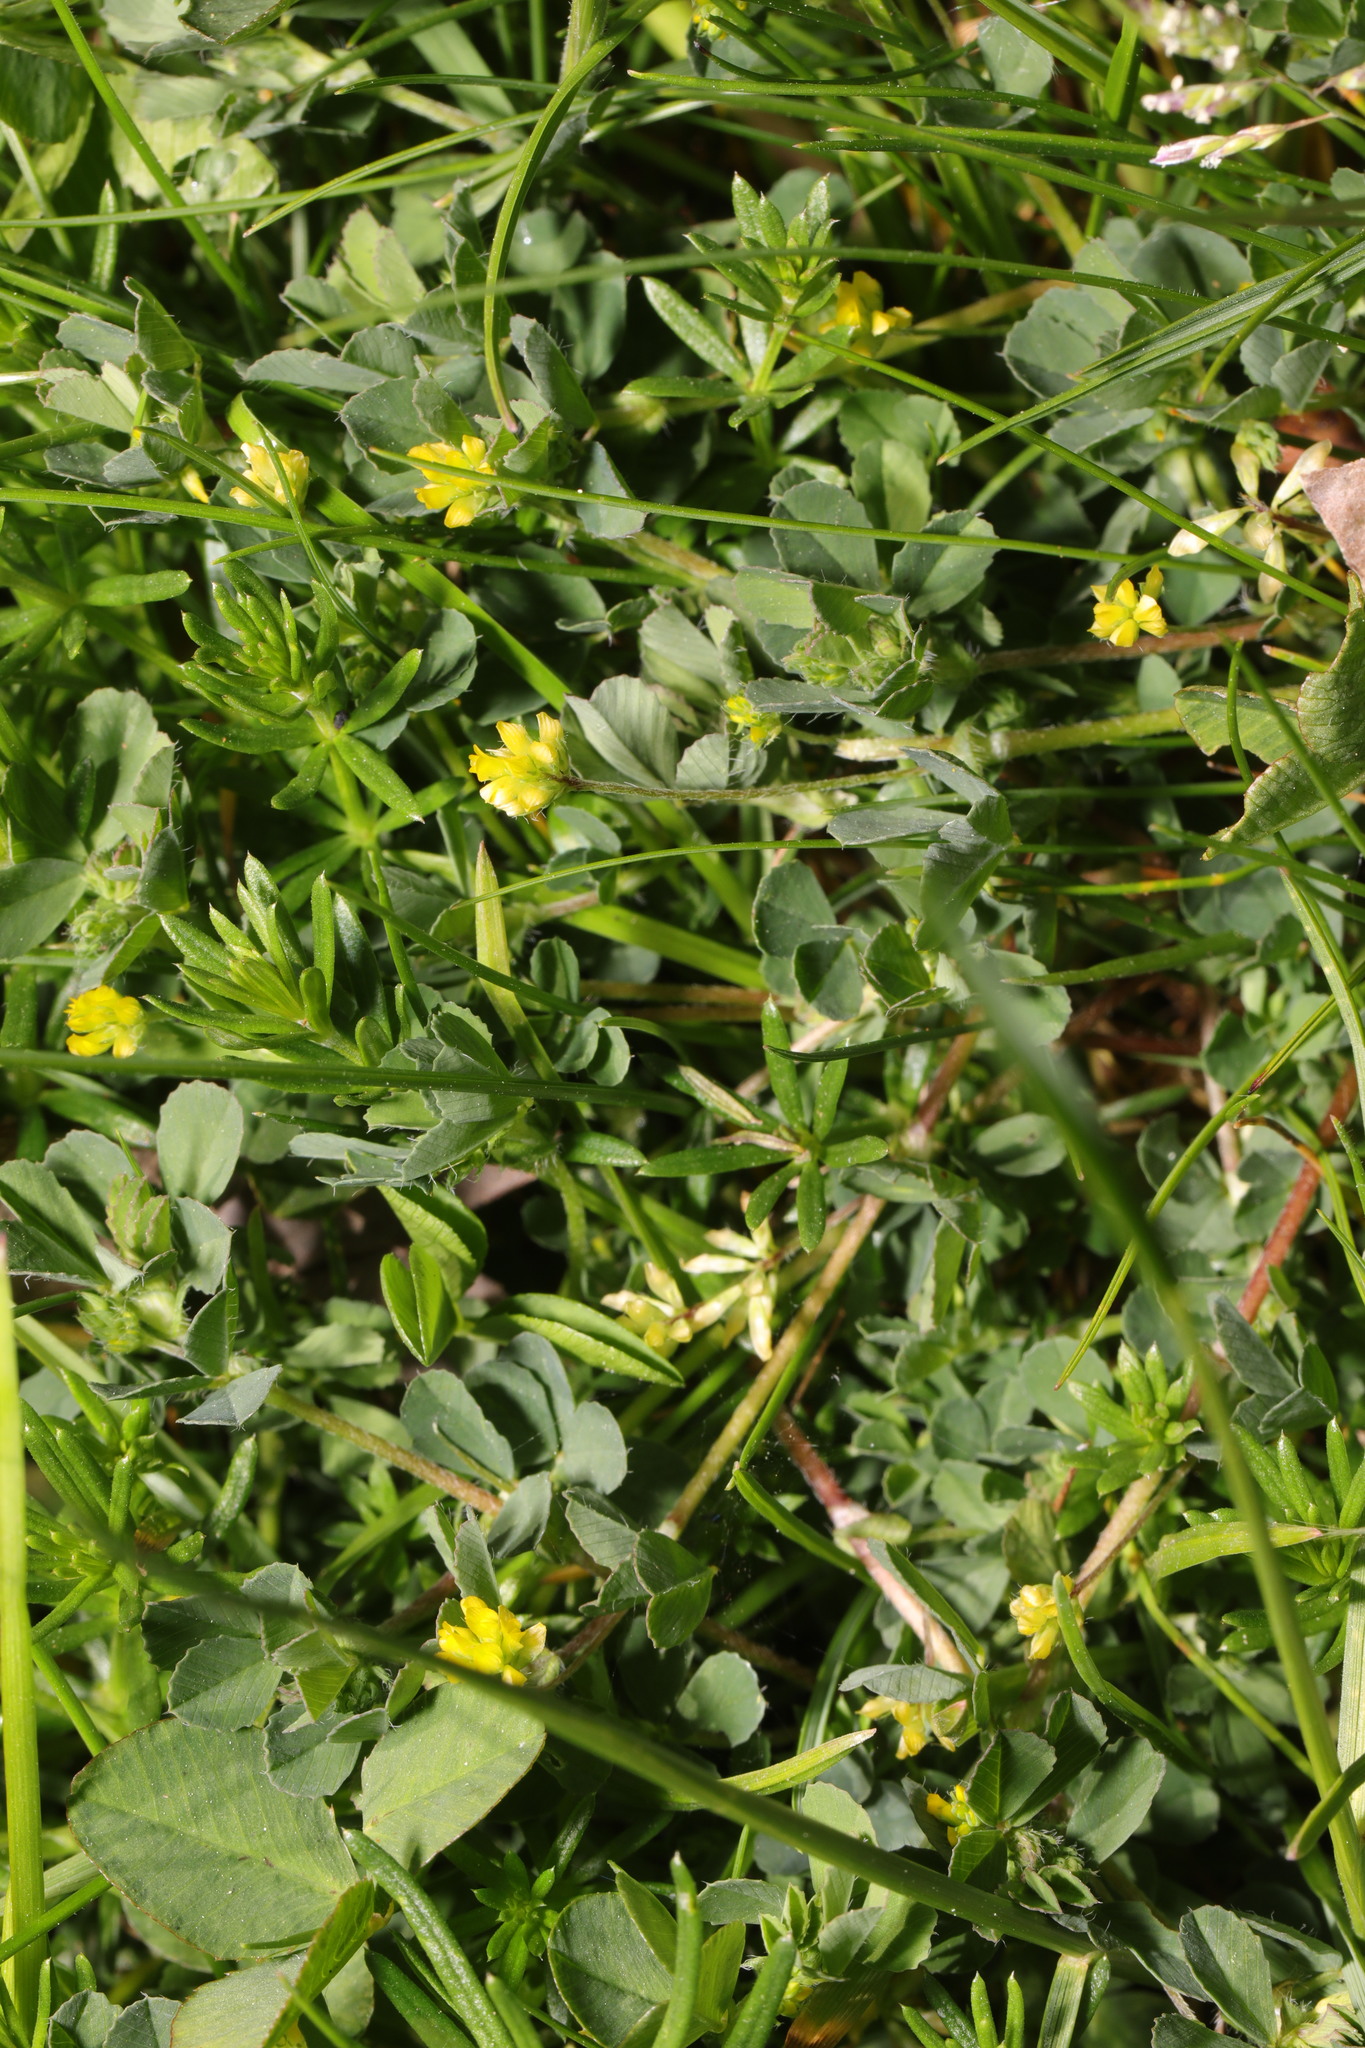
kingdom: Plantae
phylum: Tracheophyta
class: Magnoliopsida
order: Fabales
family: Fabaceae
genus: Trifolium
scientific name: Trifolium dubium
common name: Suckling clover
